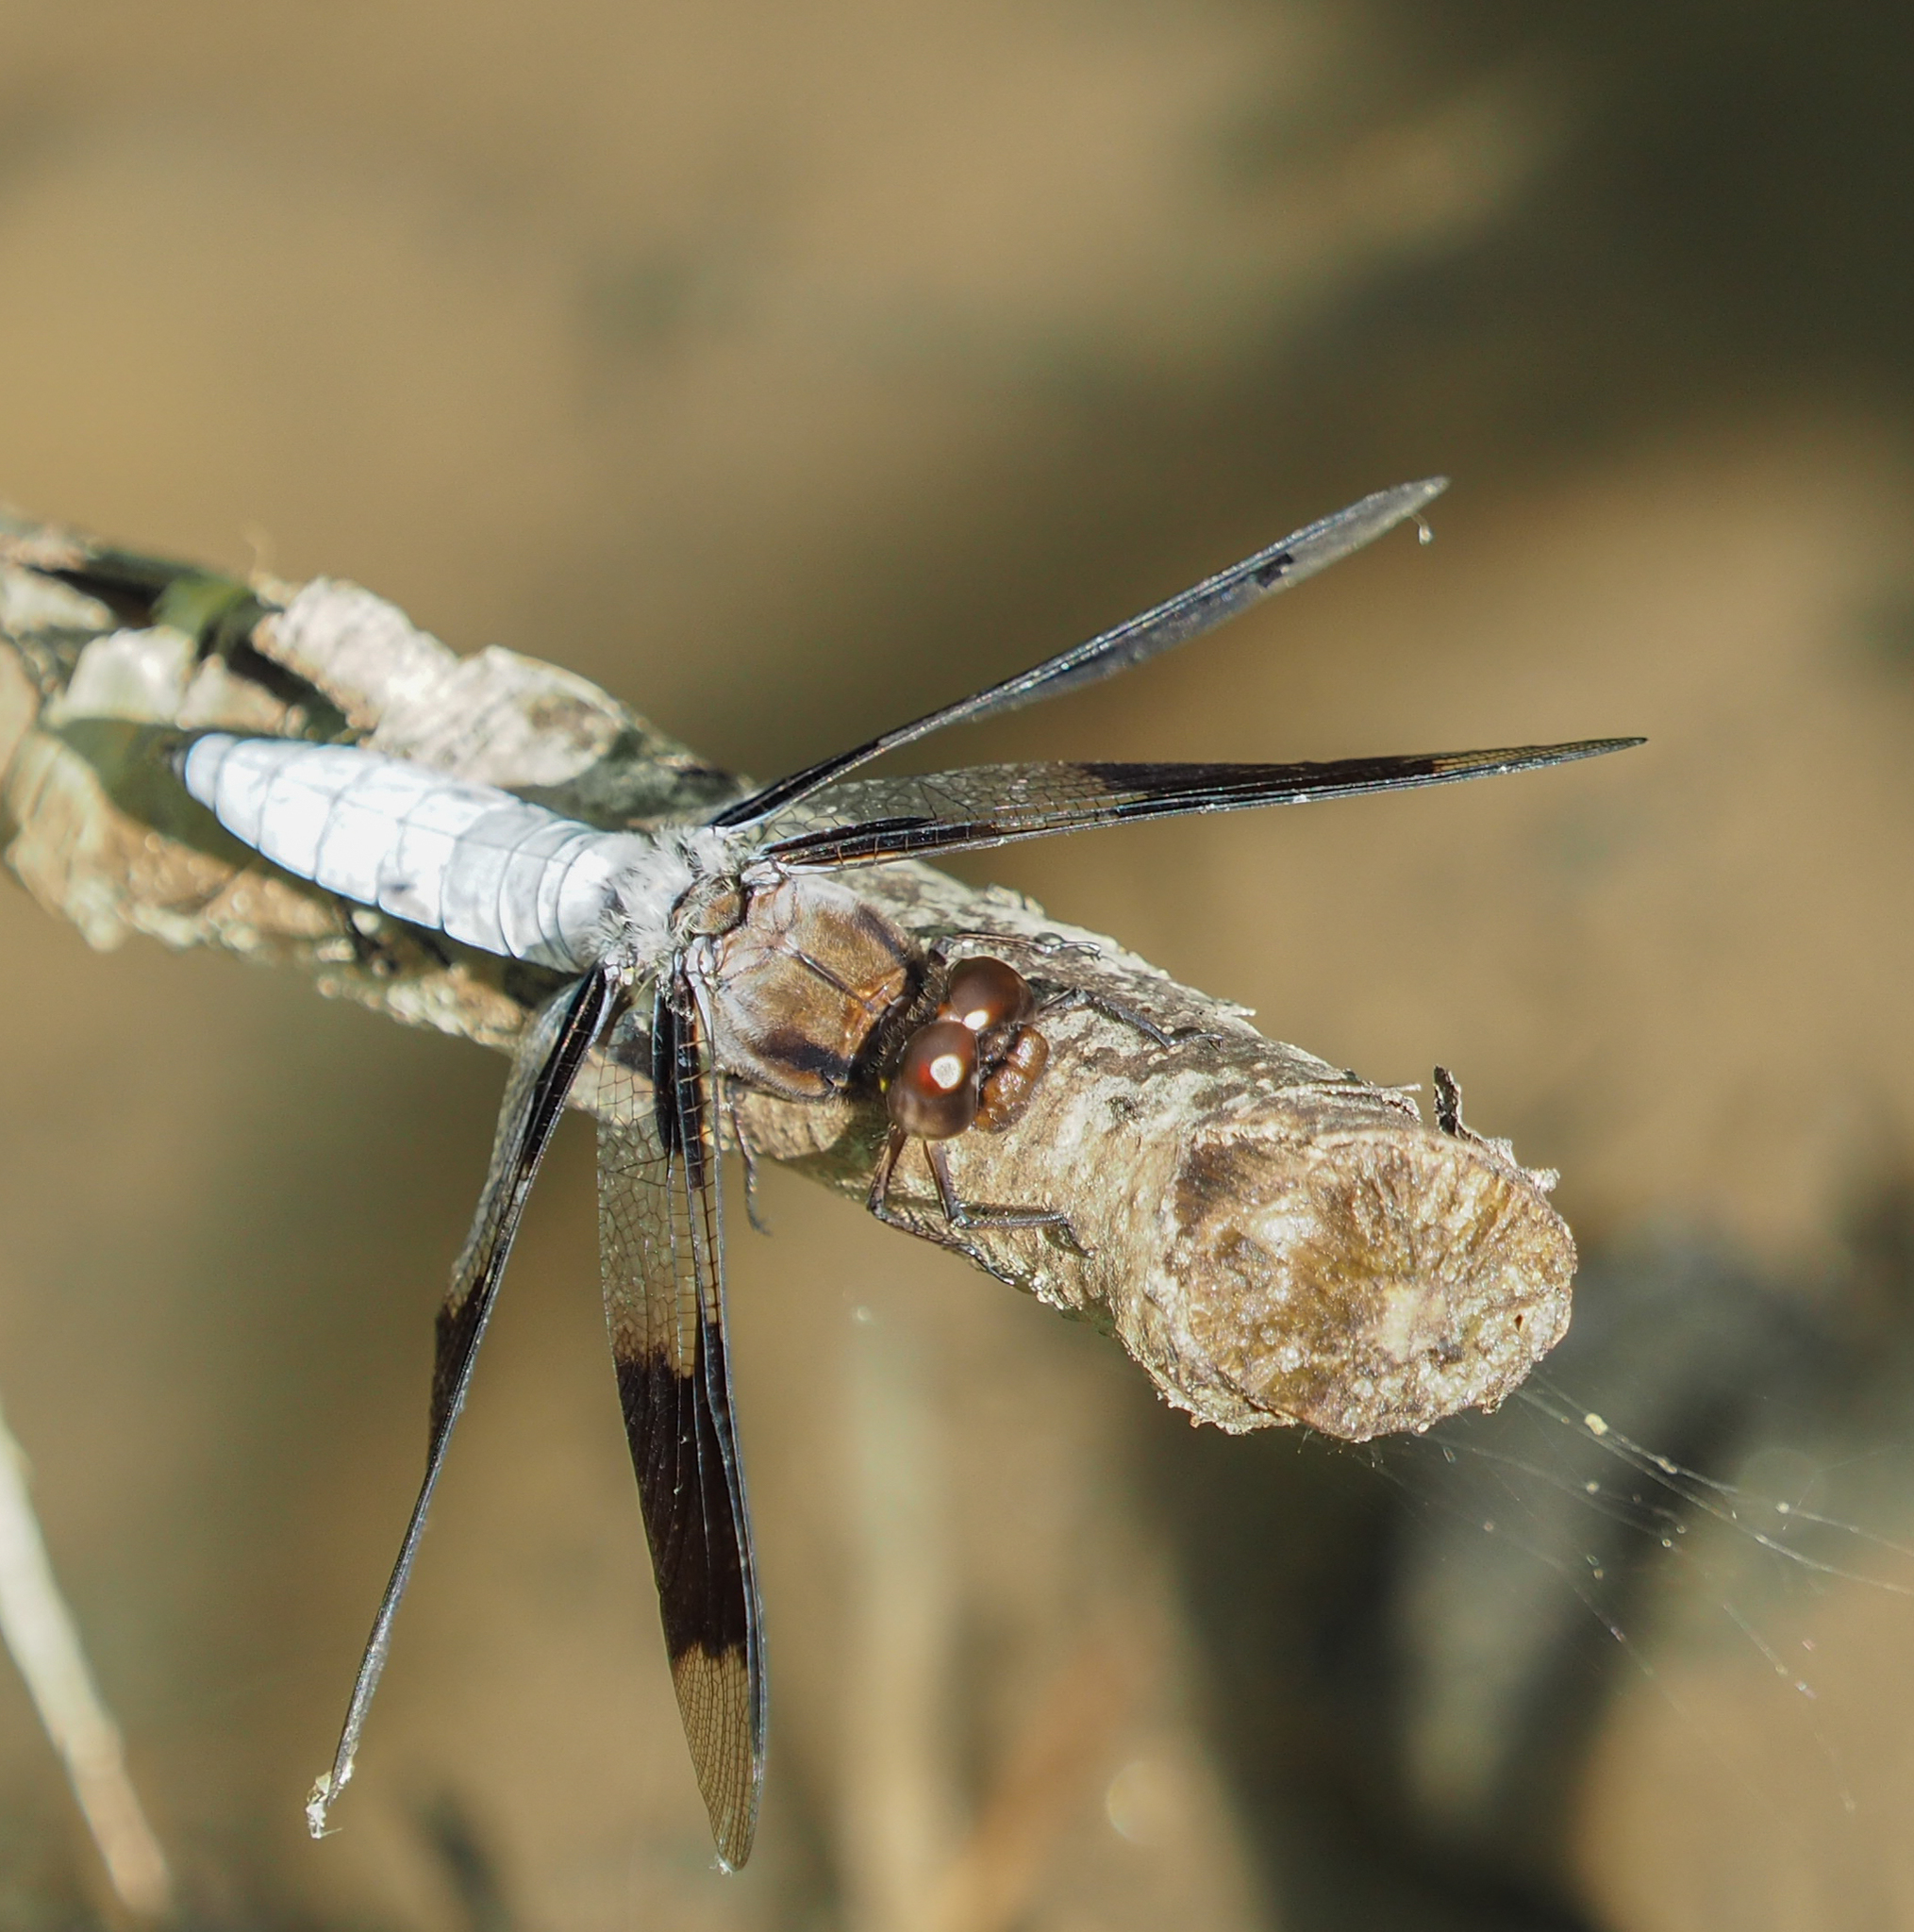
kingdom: Animalia
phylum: Arthropoda
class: Insecta
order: Odonata
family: Libellulidae
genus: Plathemis
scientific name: Plathemis lydia
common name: Common whitetail
